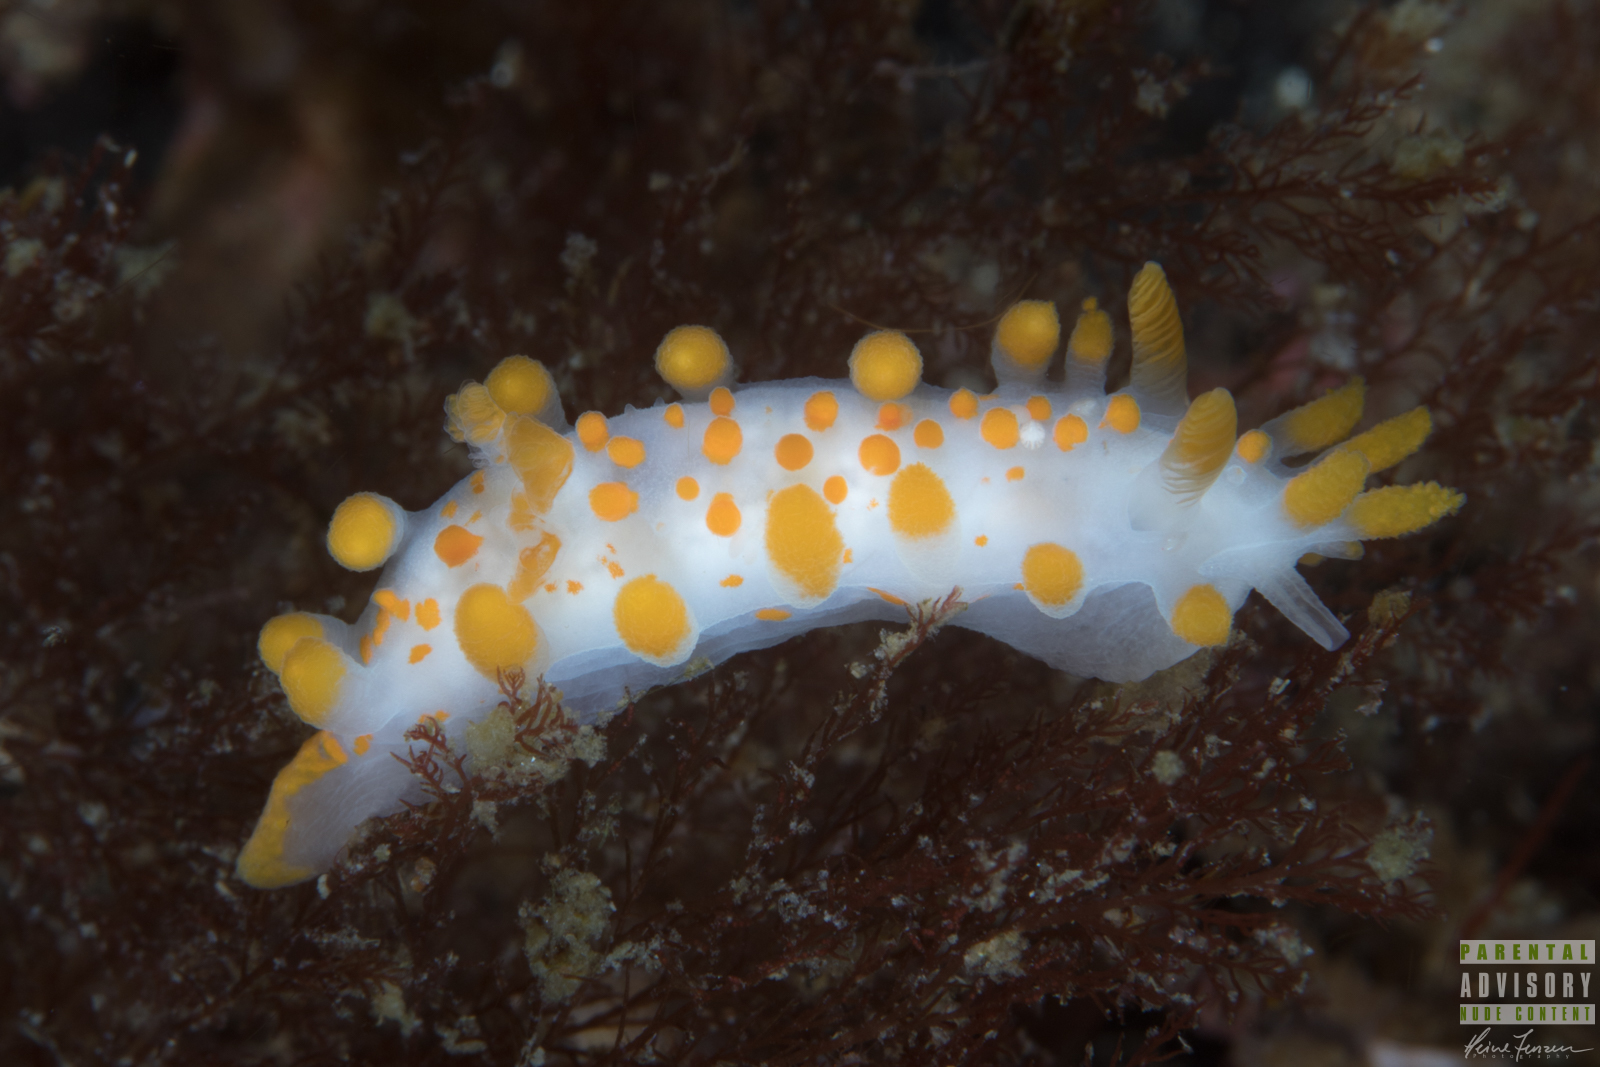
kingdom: Animalia
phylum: Mollusca
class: Gastropoda
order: Nudibranchia
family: Polyceridae
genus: Limacia
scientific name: Limacia clavigera
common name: Orange-clubbed sea slug
